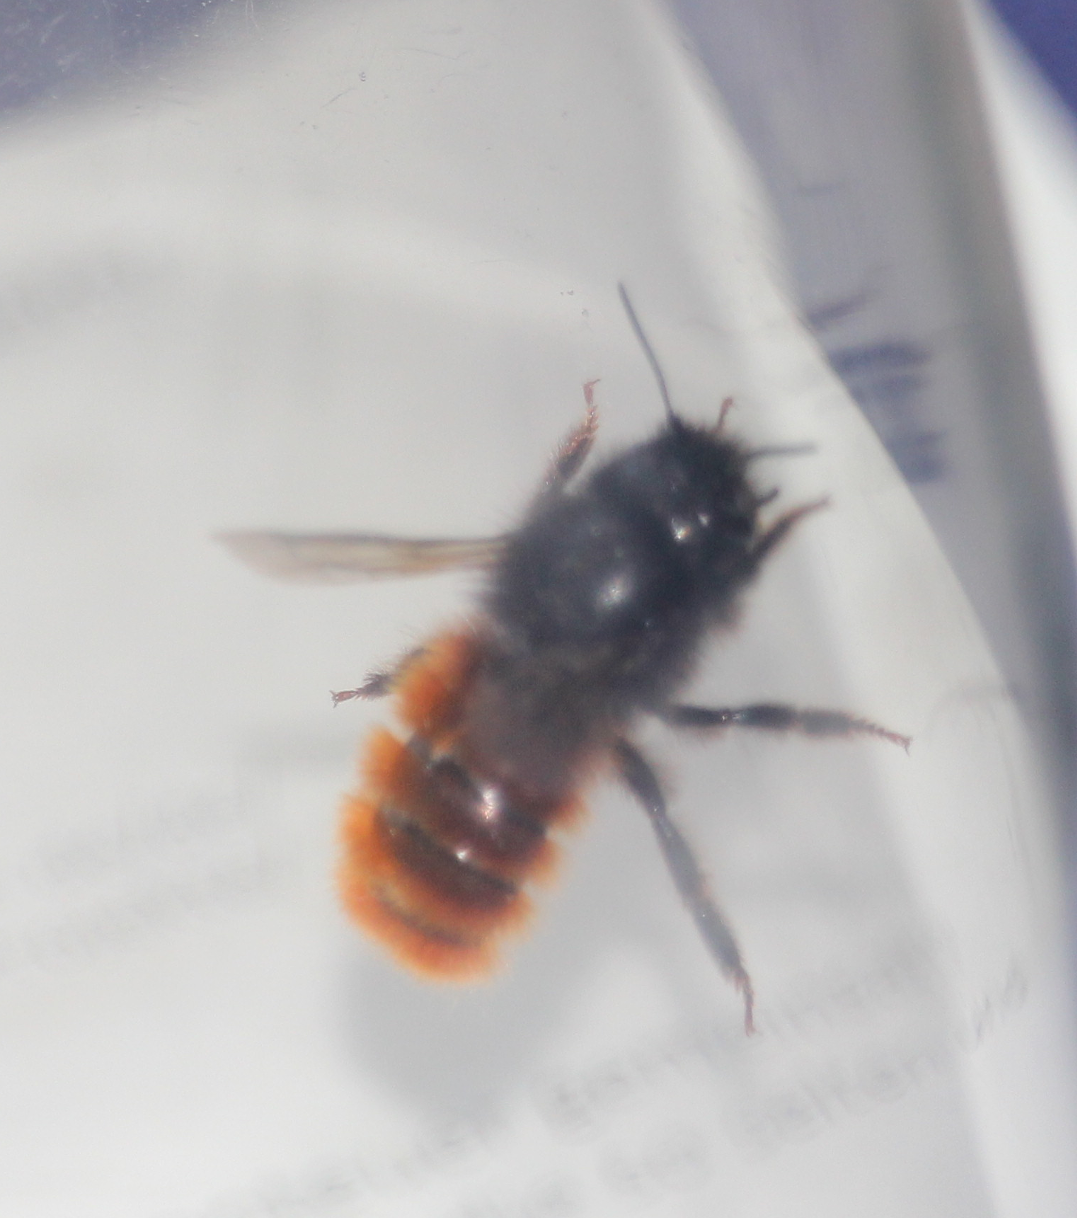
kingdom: Animalia
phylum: Arthropoda
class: Insecta
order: Hymenoptera
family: Megachilidae
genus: Osmia
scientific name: Osmia cornuta
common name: Mason bee
